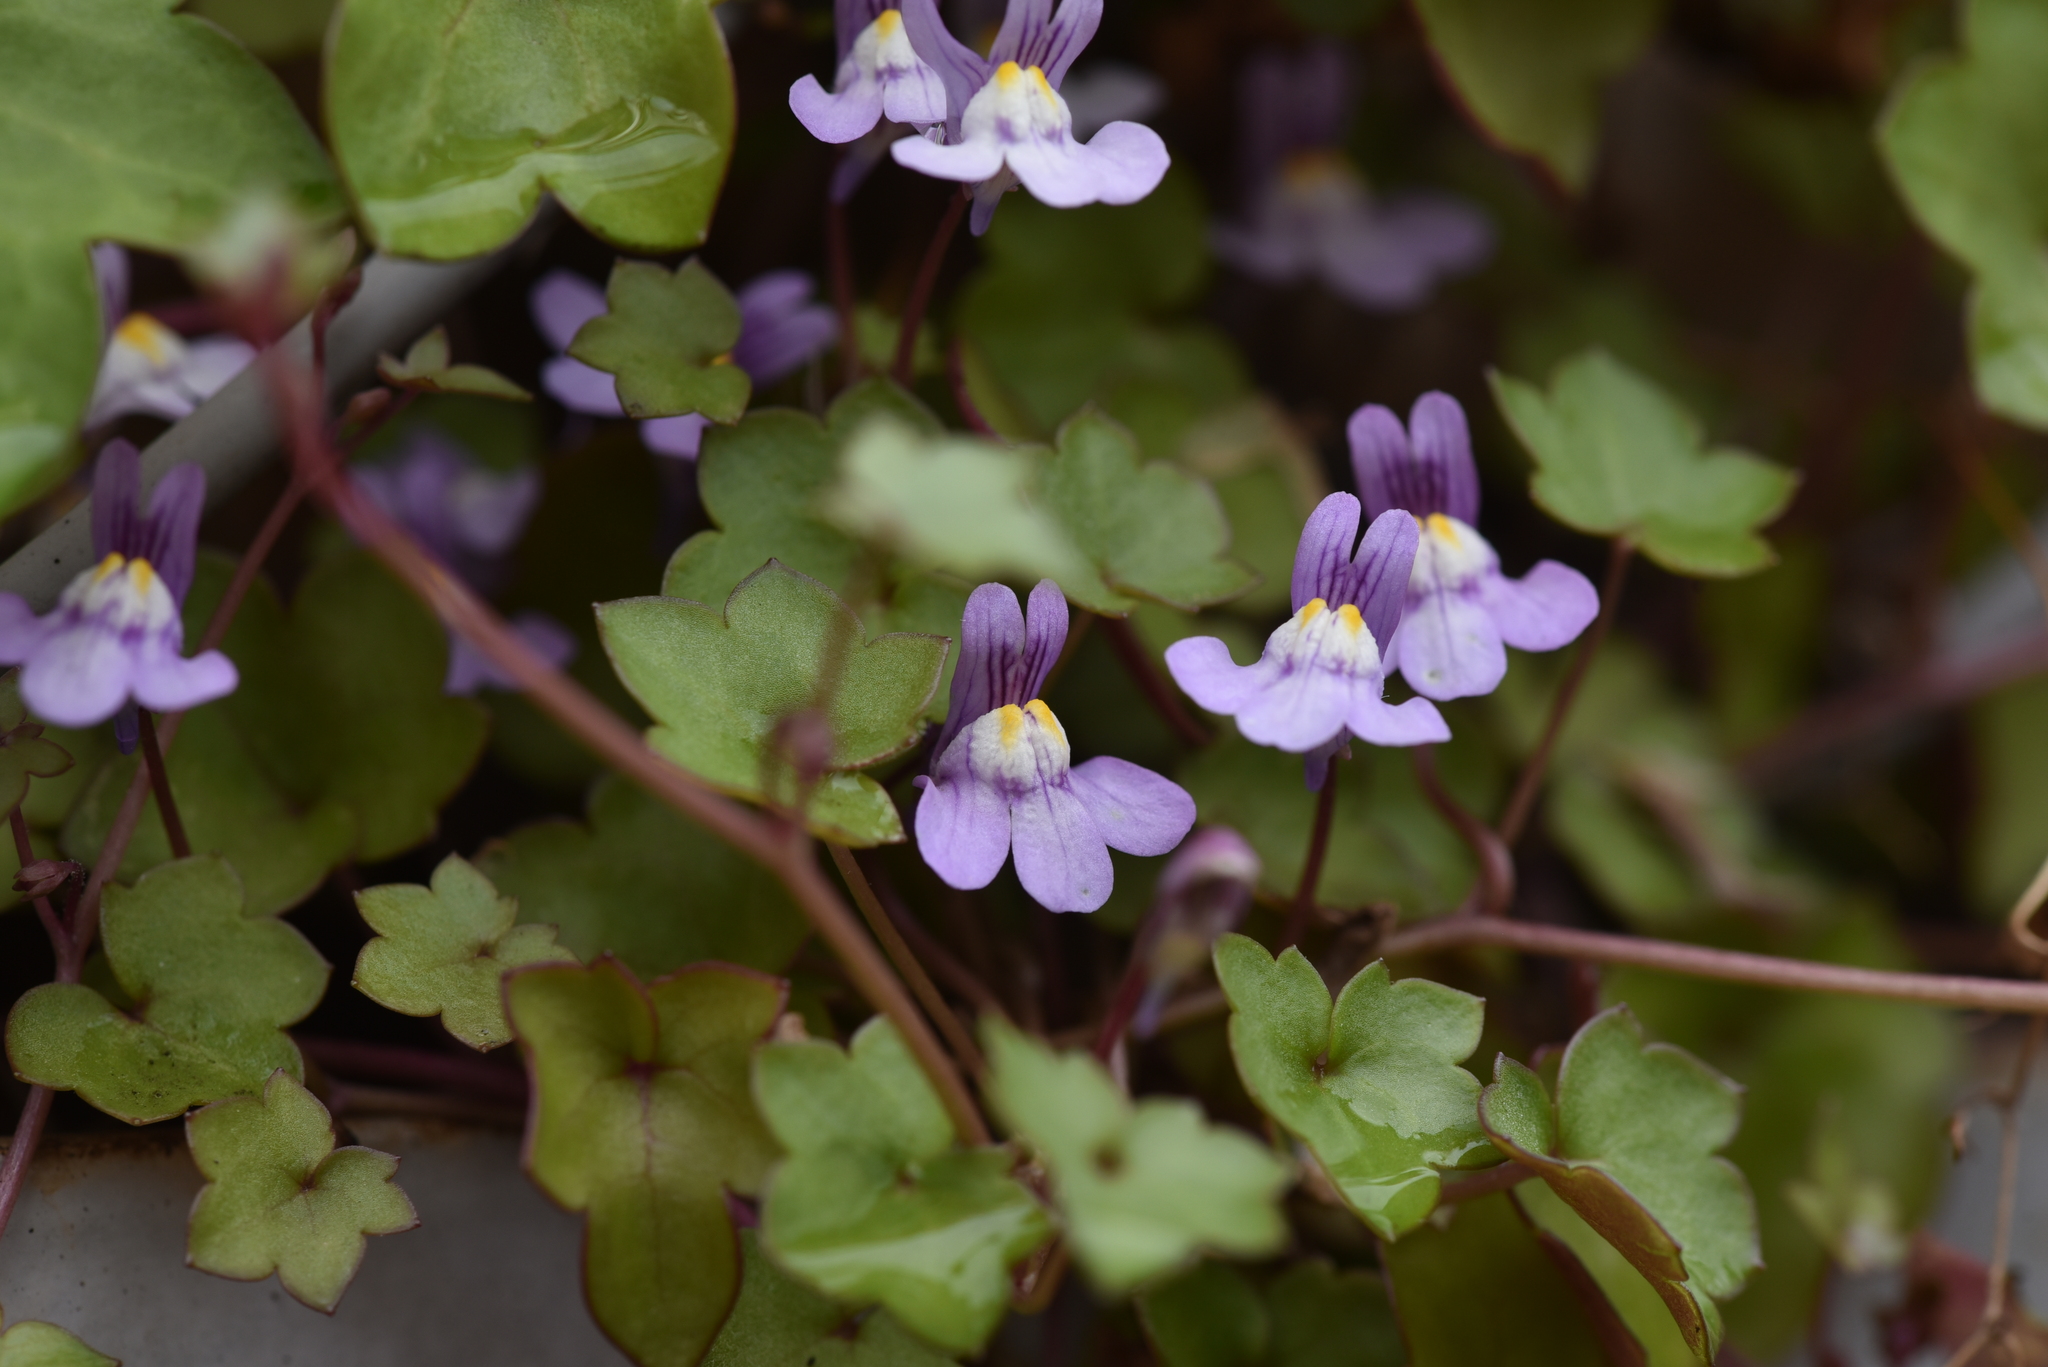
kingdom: Plantae
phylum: Tracheophyta
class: Magnoliopsida
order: Lamiales
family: Plantaginaceae
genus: Cymbalaria
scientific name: Cymbalaria muralis
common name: Ivy-leaved toadflax
